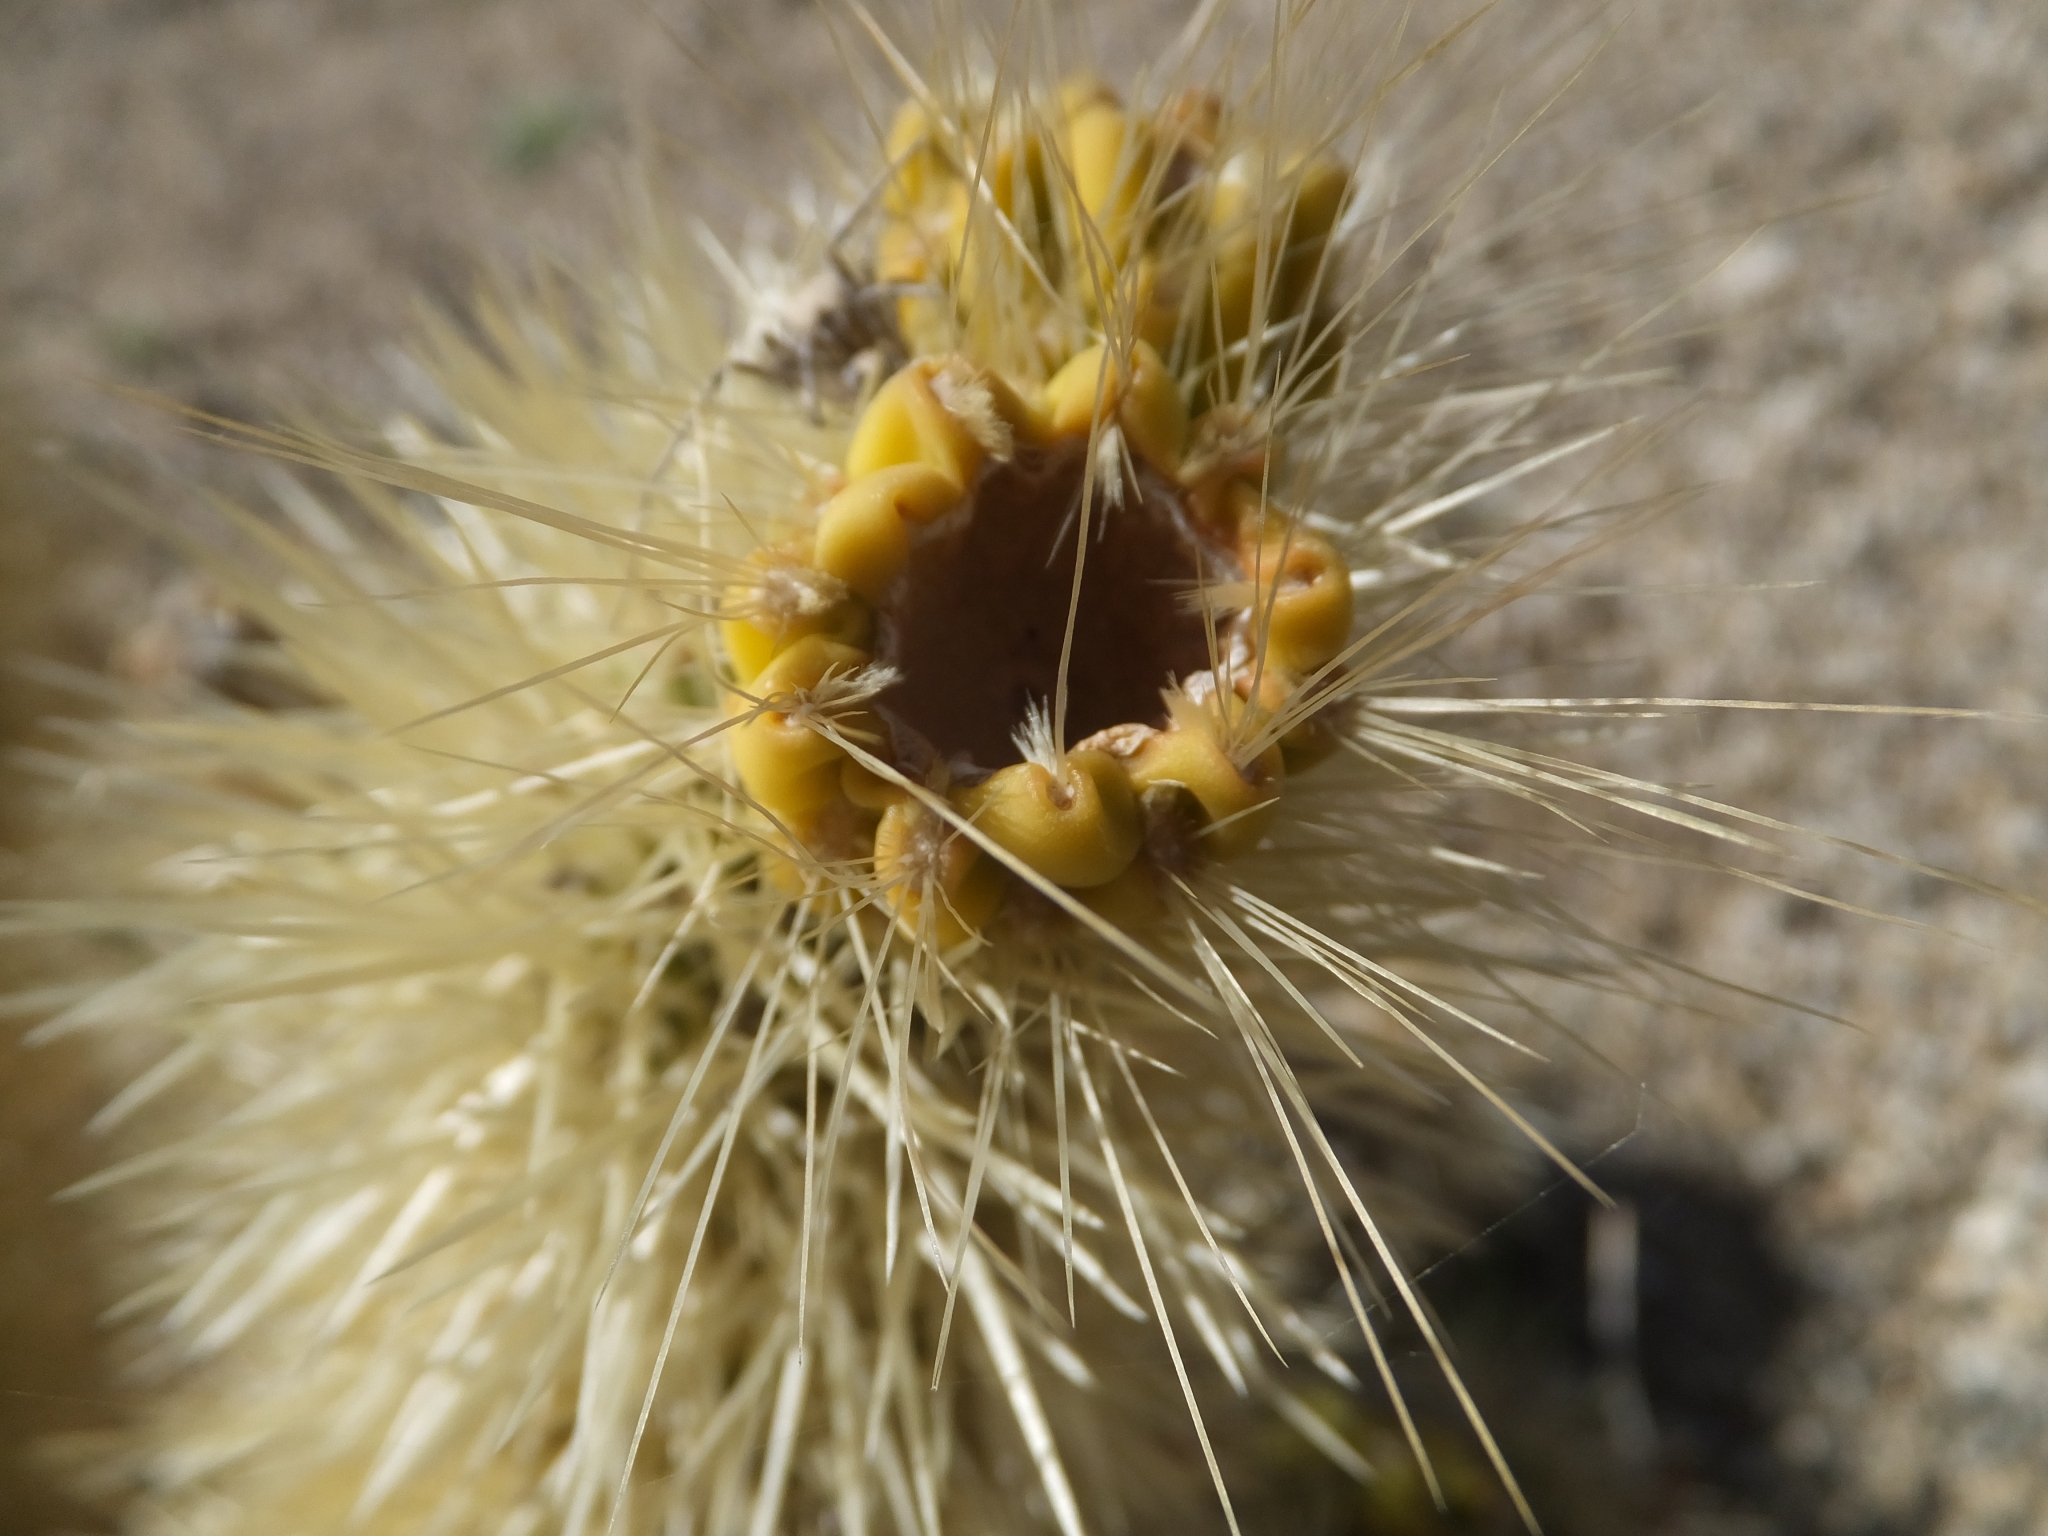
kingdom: Plantae
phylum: Tracheophyta
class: Magnoliopsida
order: Caryophyllales
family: Cactaceae
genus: Cylindropuntia
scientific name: Cylindropuntia fosbergii
